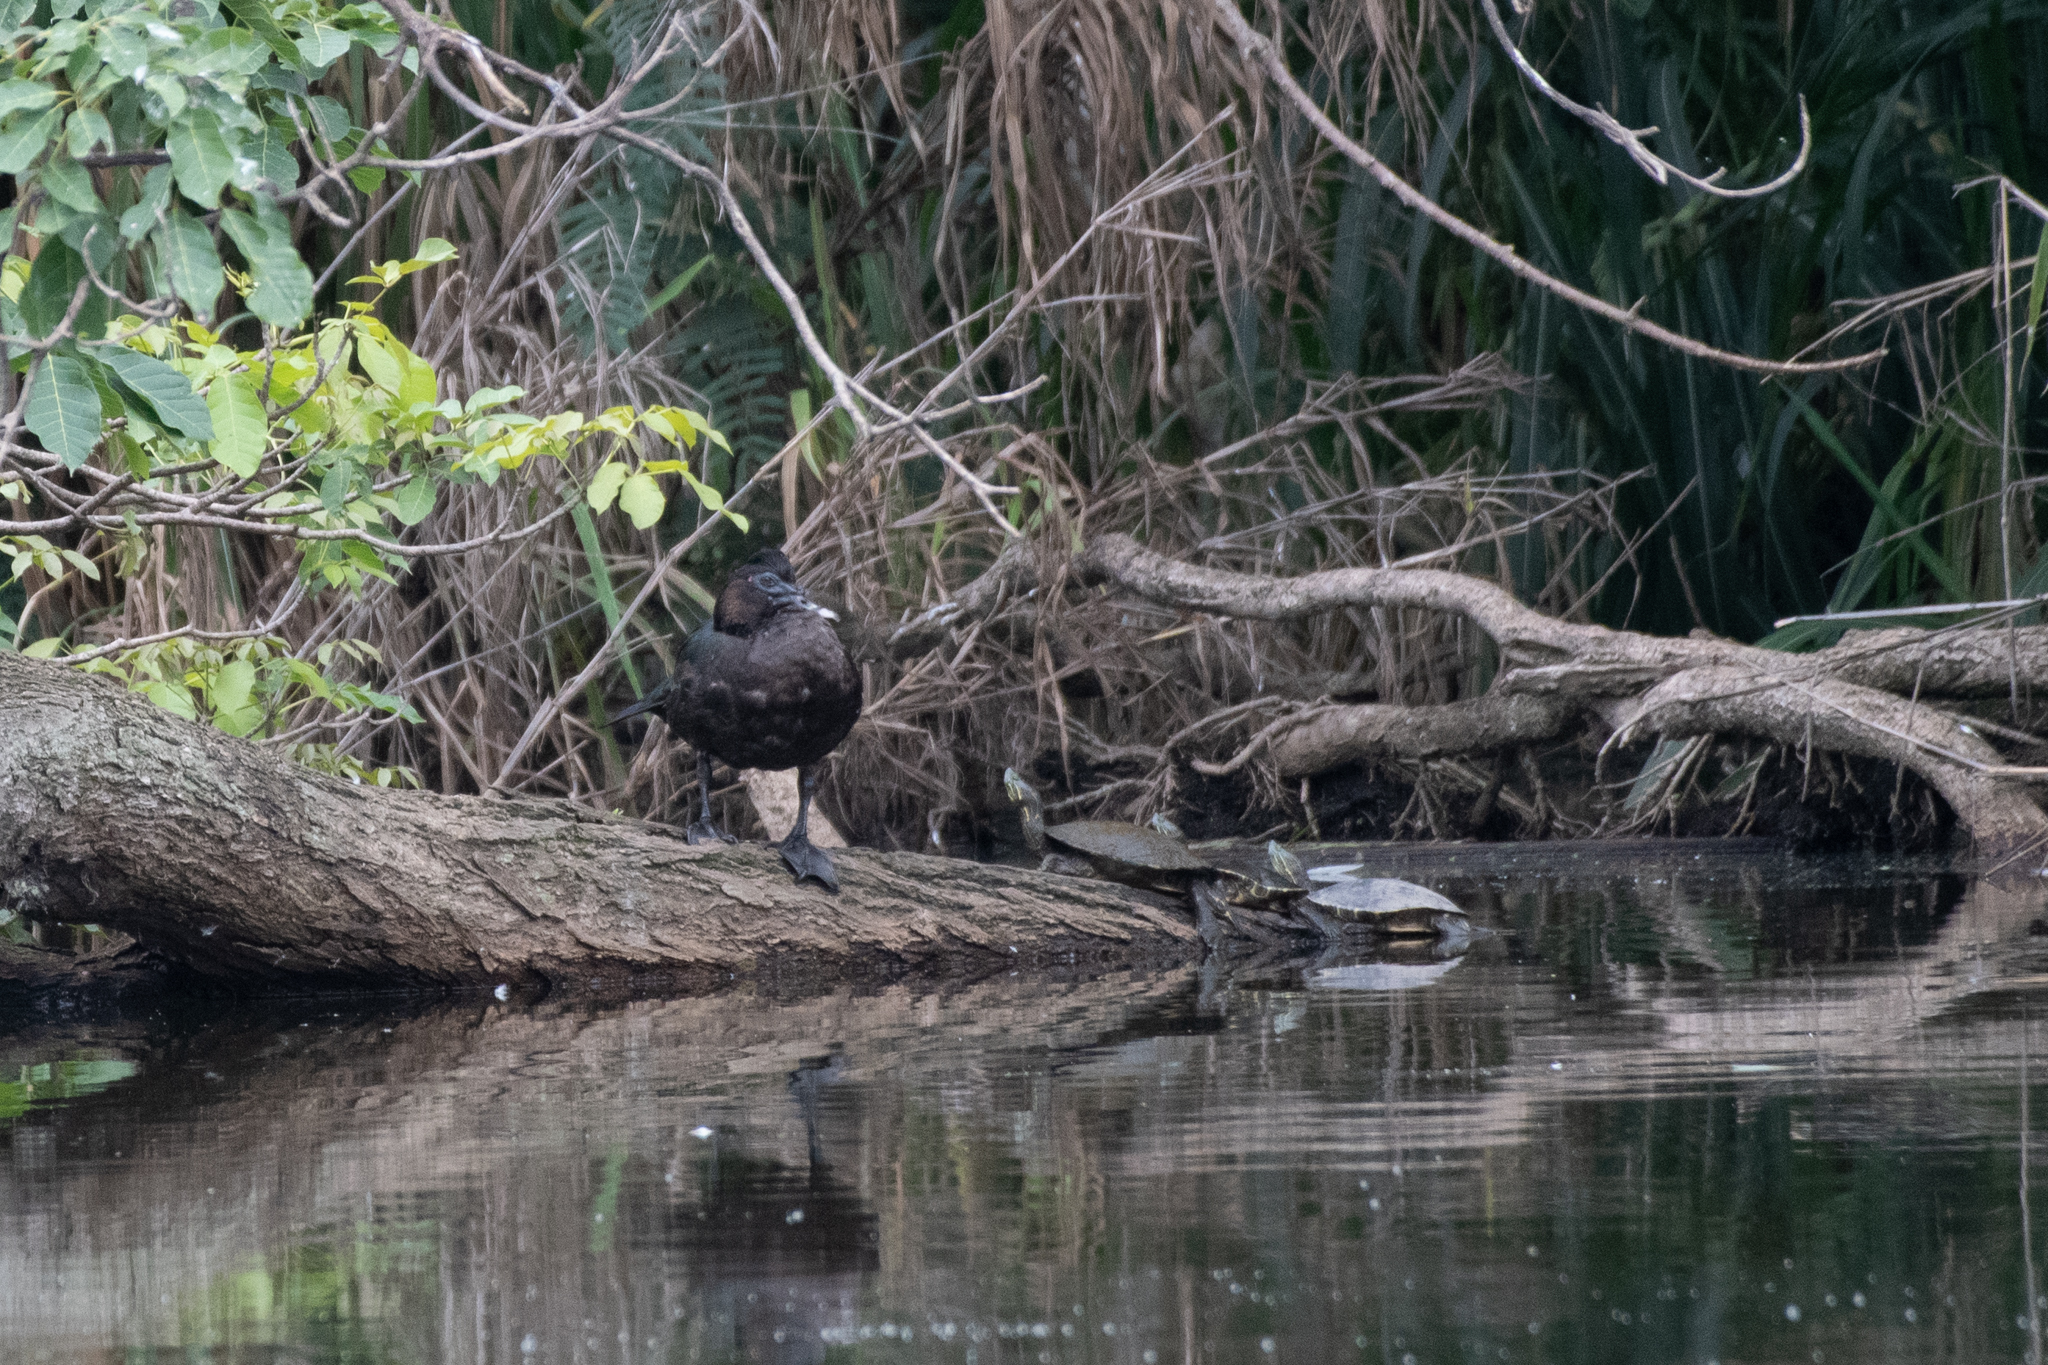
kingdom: Animalia
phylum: Chordata
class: Testudines
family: Emydidae
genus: Trachemys
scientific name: Trachemys venusta
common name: Mesoamerican slider
